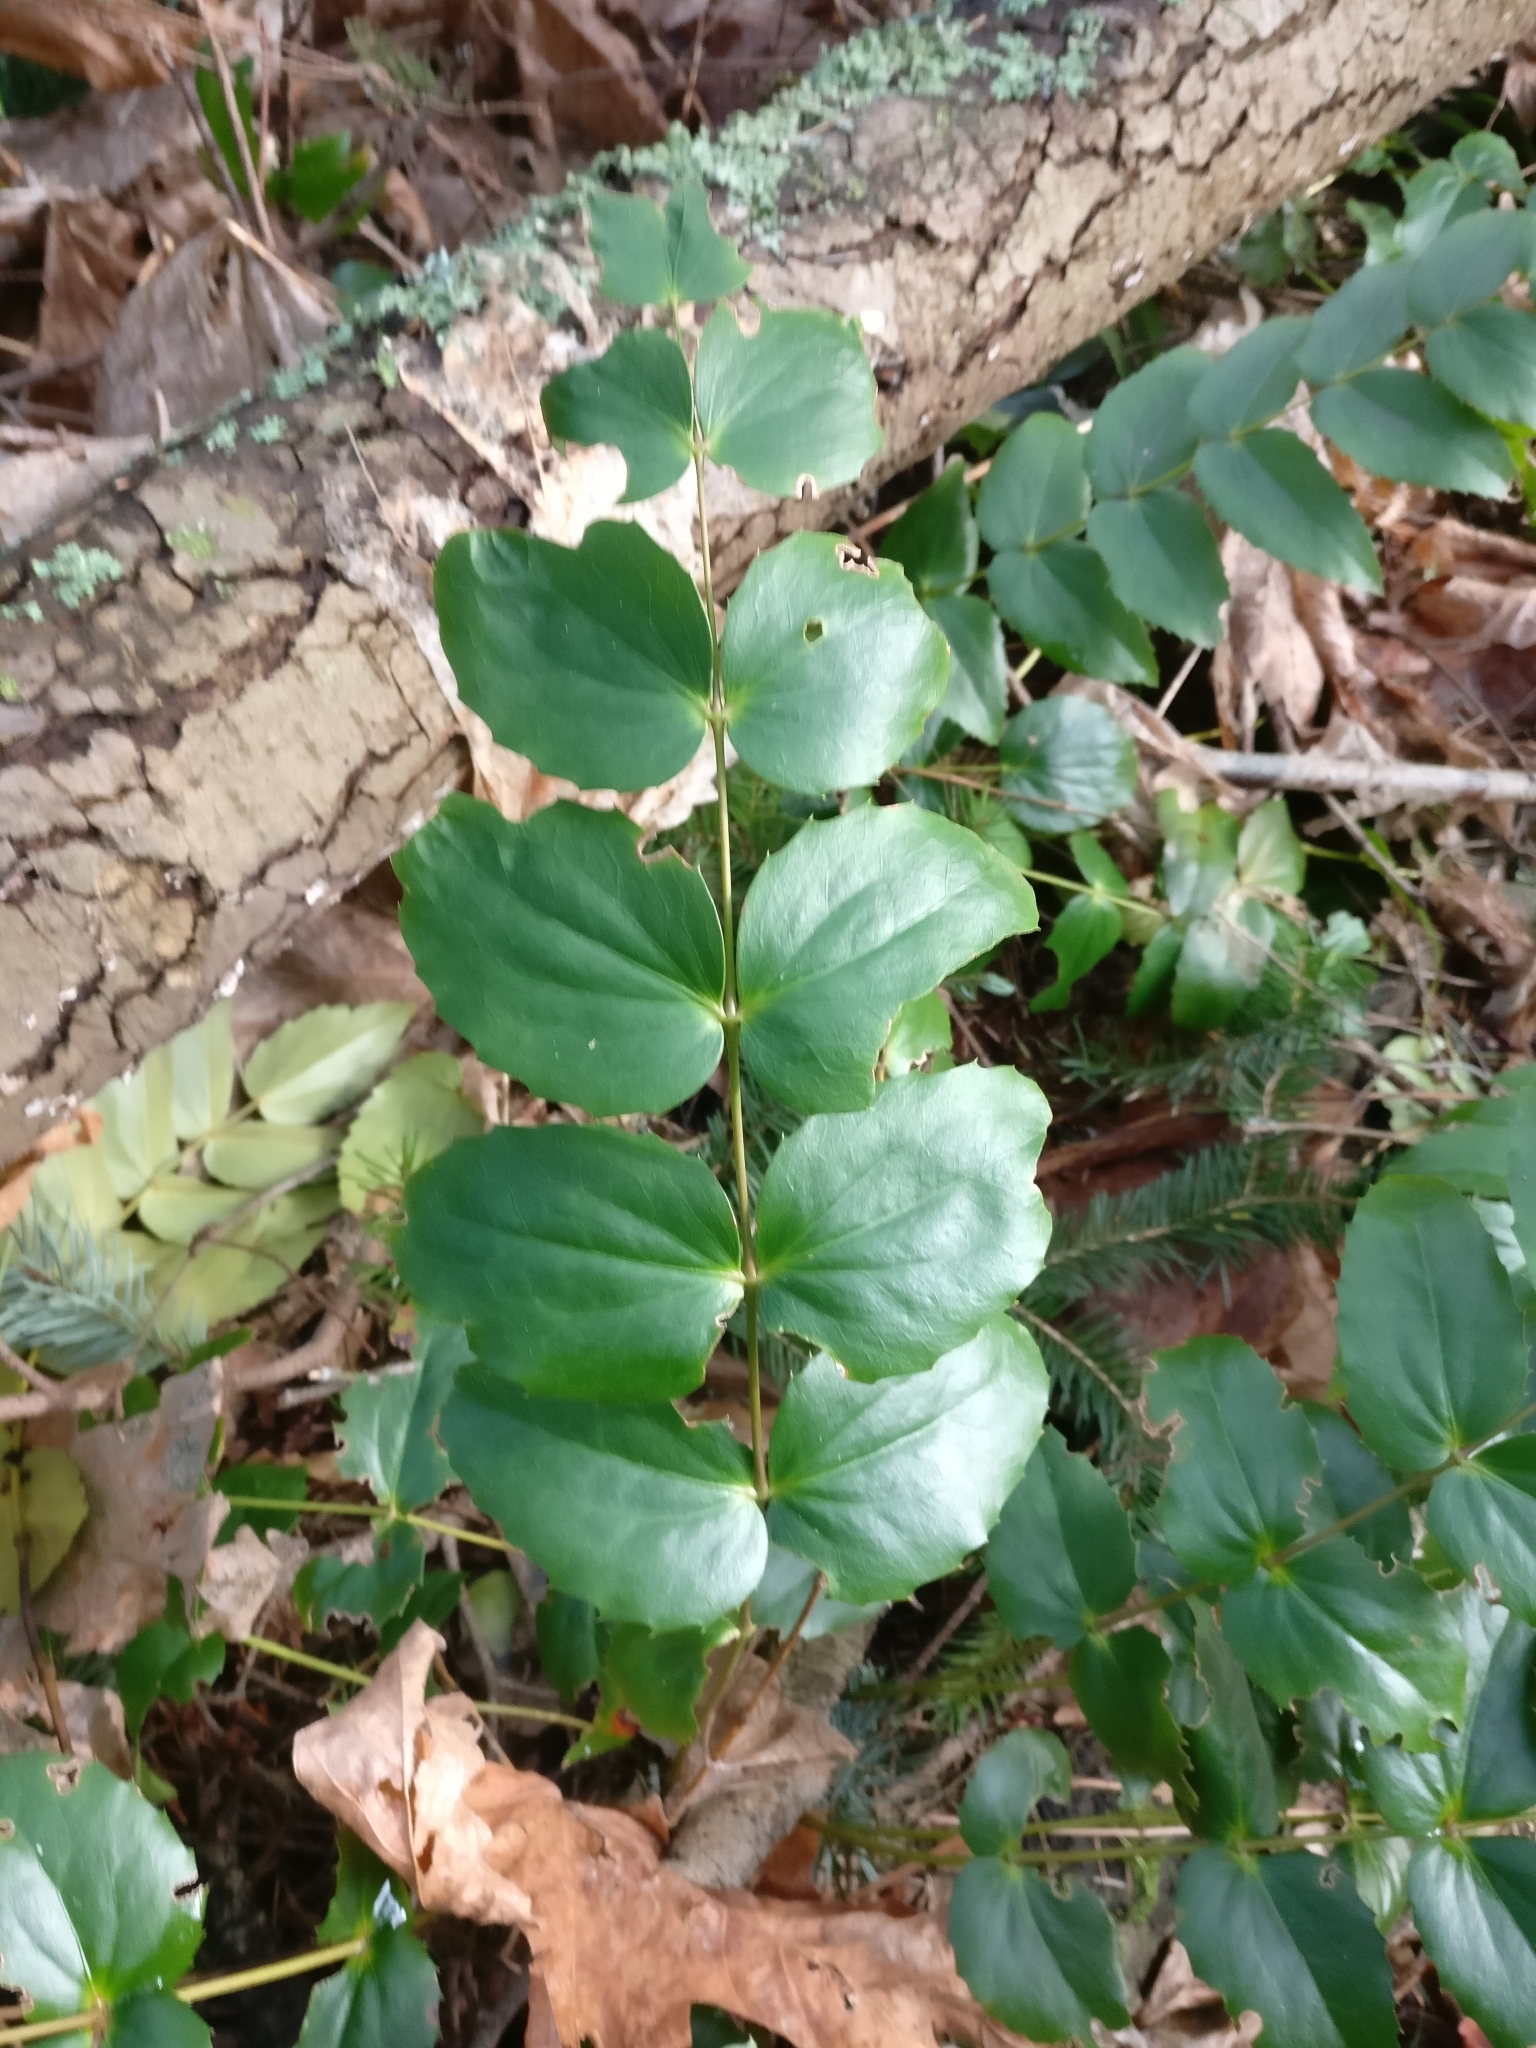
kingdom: Plantae
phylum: Tracheophyta
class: Magnoliopsida
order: Ranunculales
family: Berberidaceae
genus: Mahonia
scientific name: Mahonia nervosa
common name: Cascade oregon-grape
